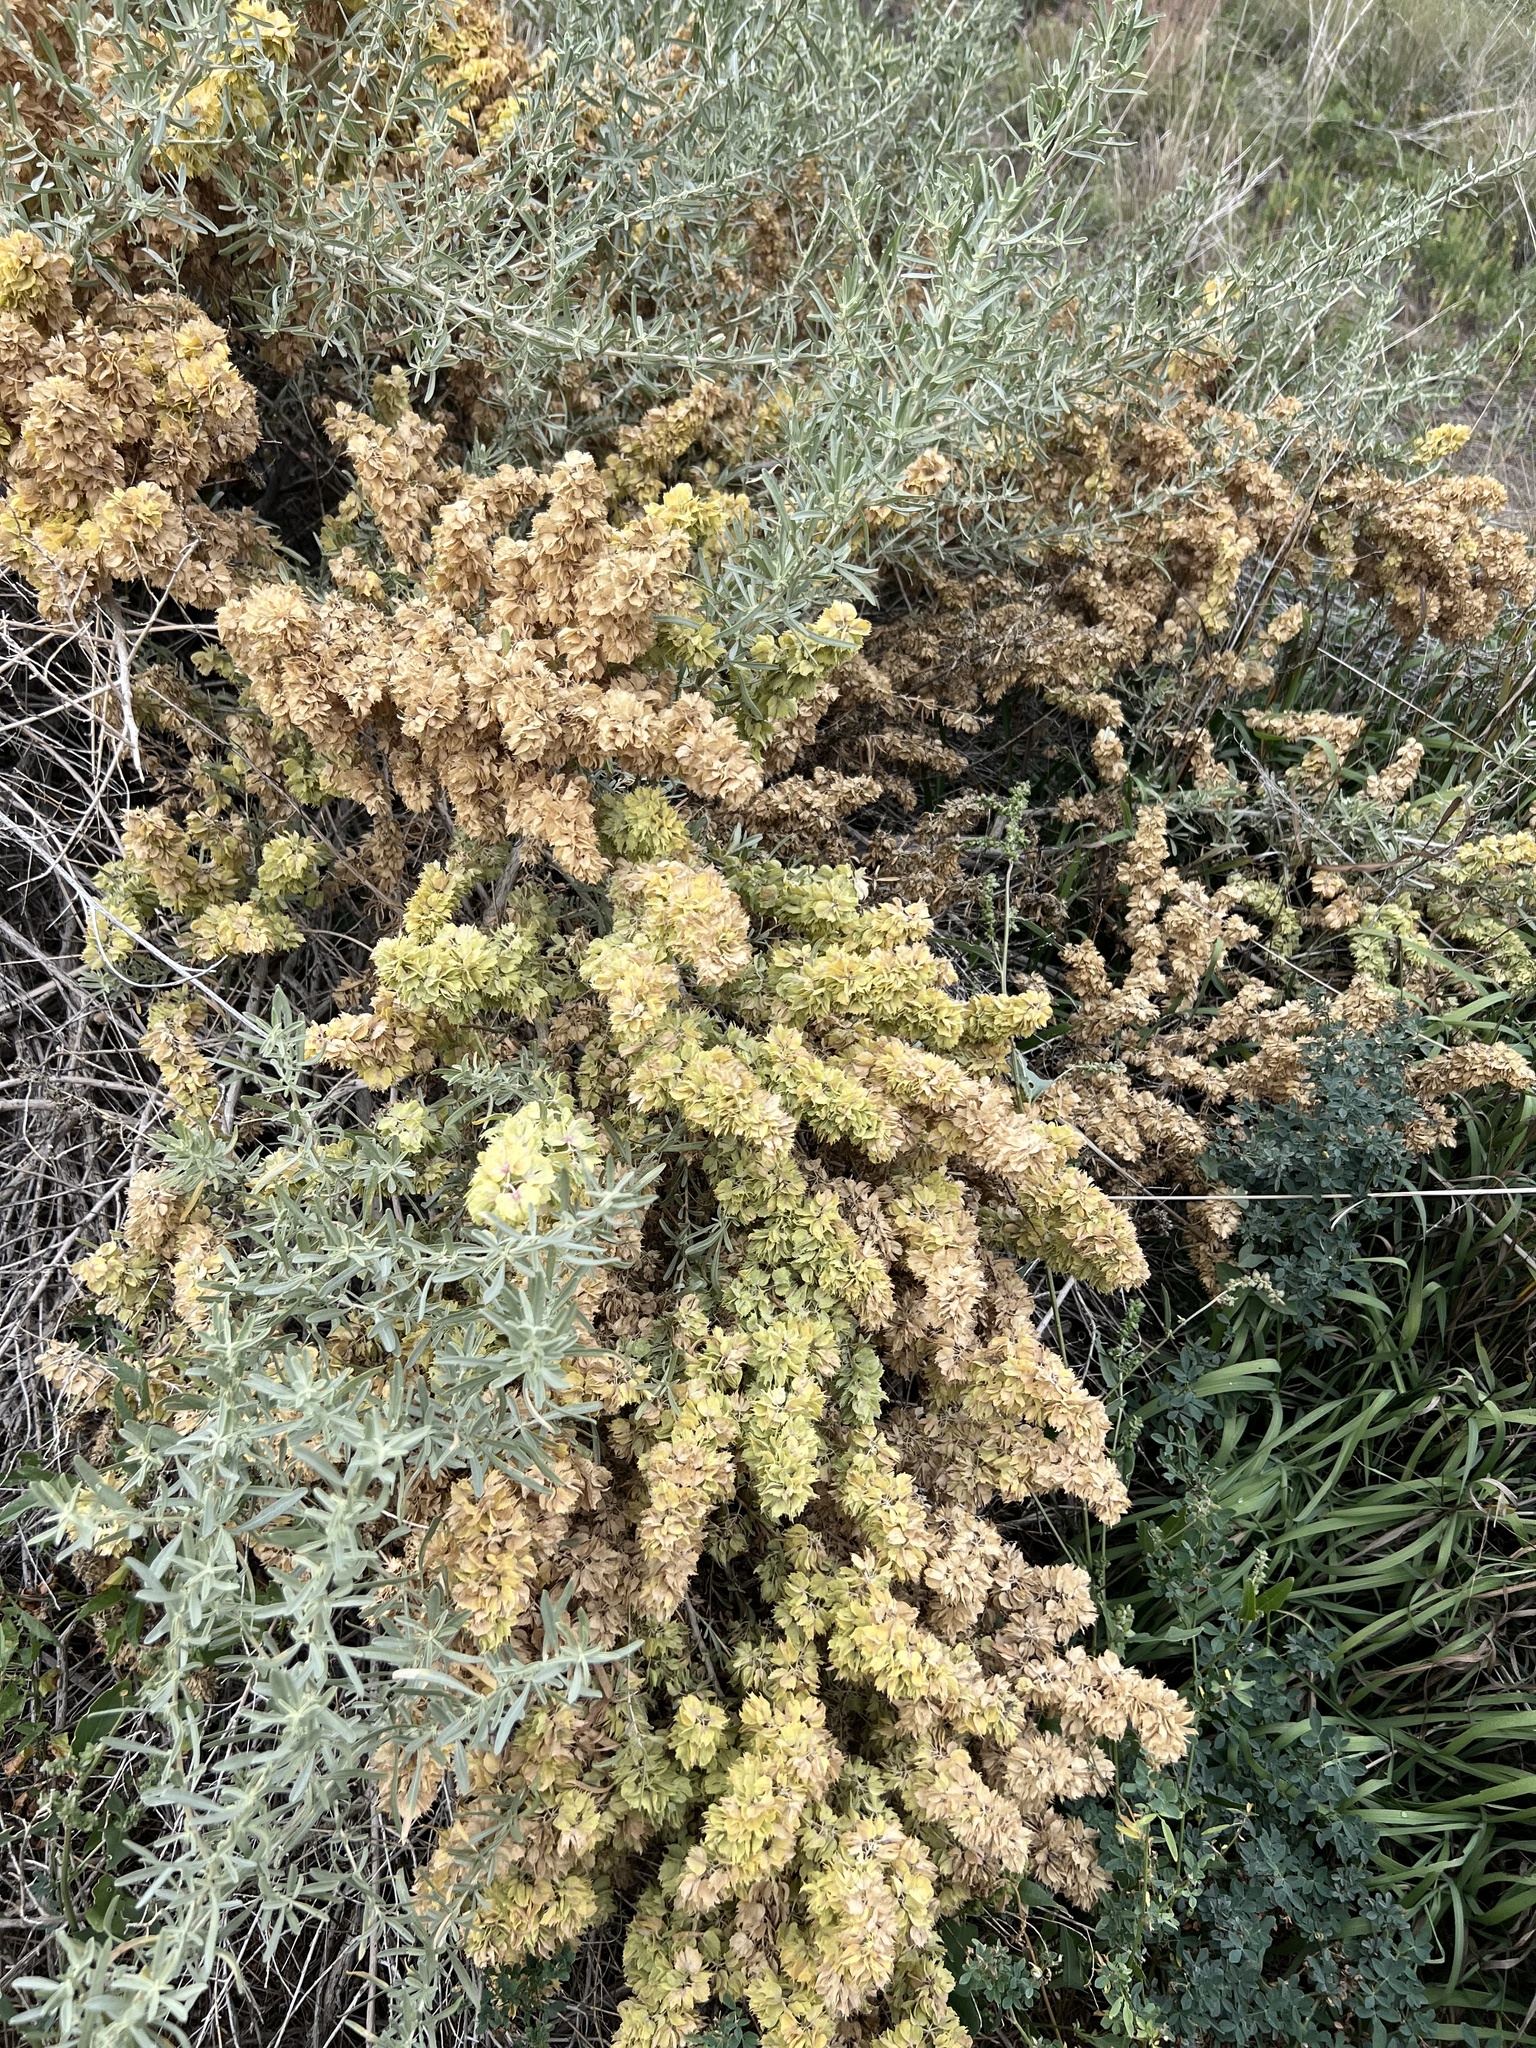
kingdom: Plantae
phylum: Tracheophyta
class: Magnoliopsida
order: Caryophyllales
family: Amaranthaceae
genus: Atriplex
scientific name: Atriplex canescens
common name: Four-wing saltbush
